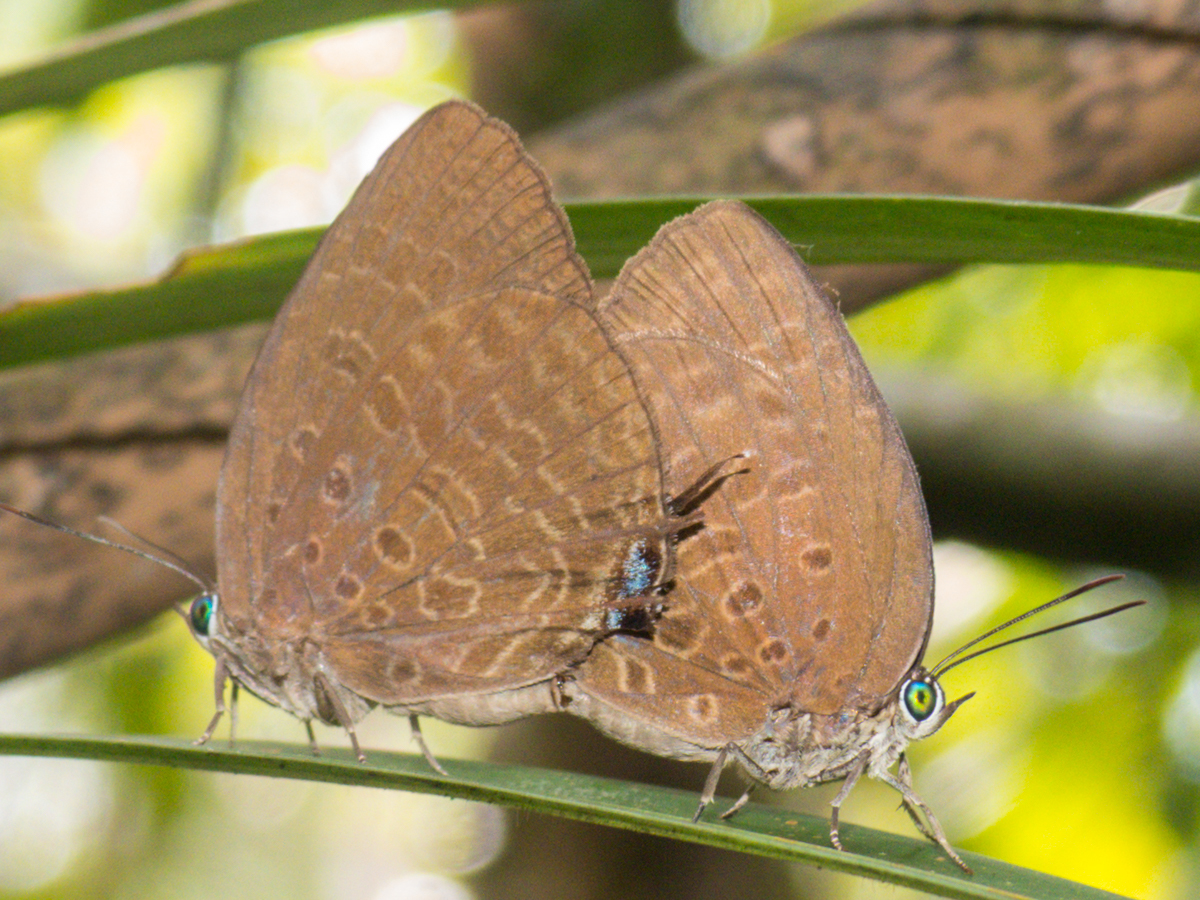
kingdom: Animalia
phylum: Arthropoda
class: Insecta
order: Lepidoptera
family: Lycaenidae
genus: Arhopala
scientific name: Arhopala atosia
